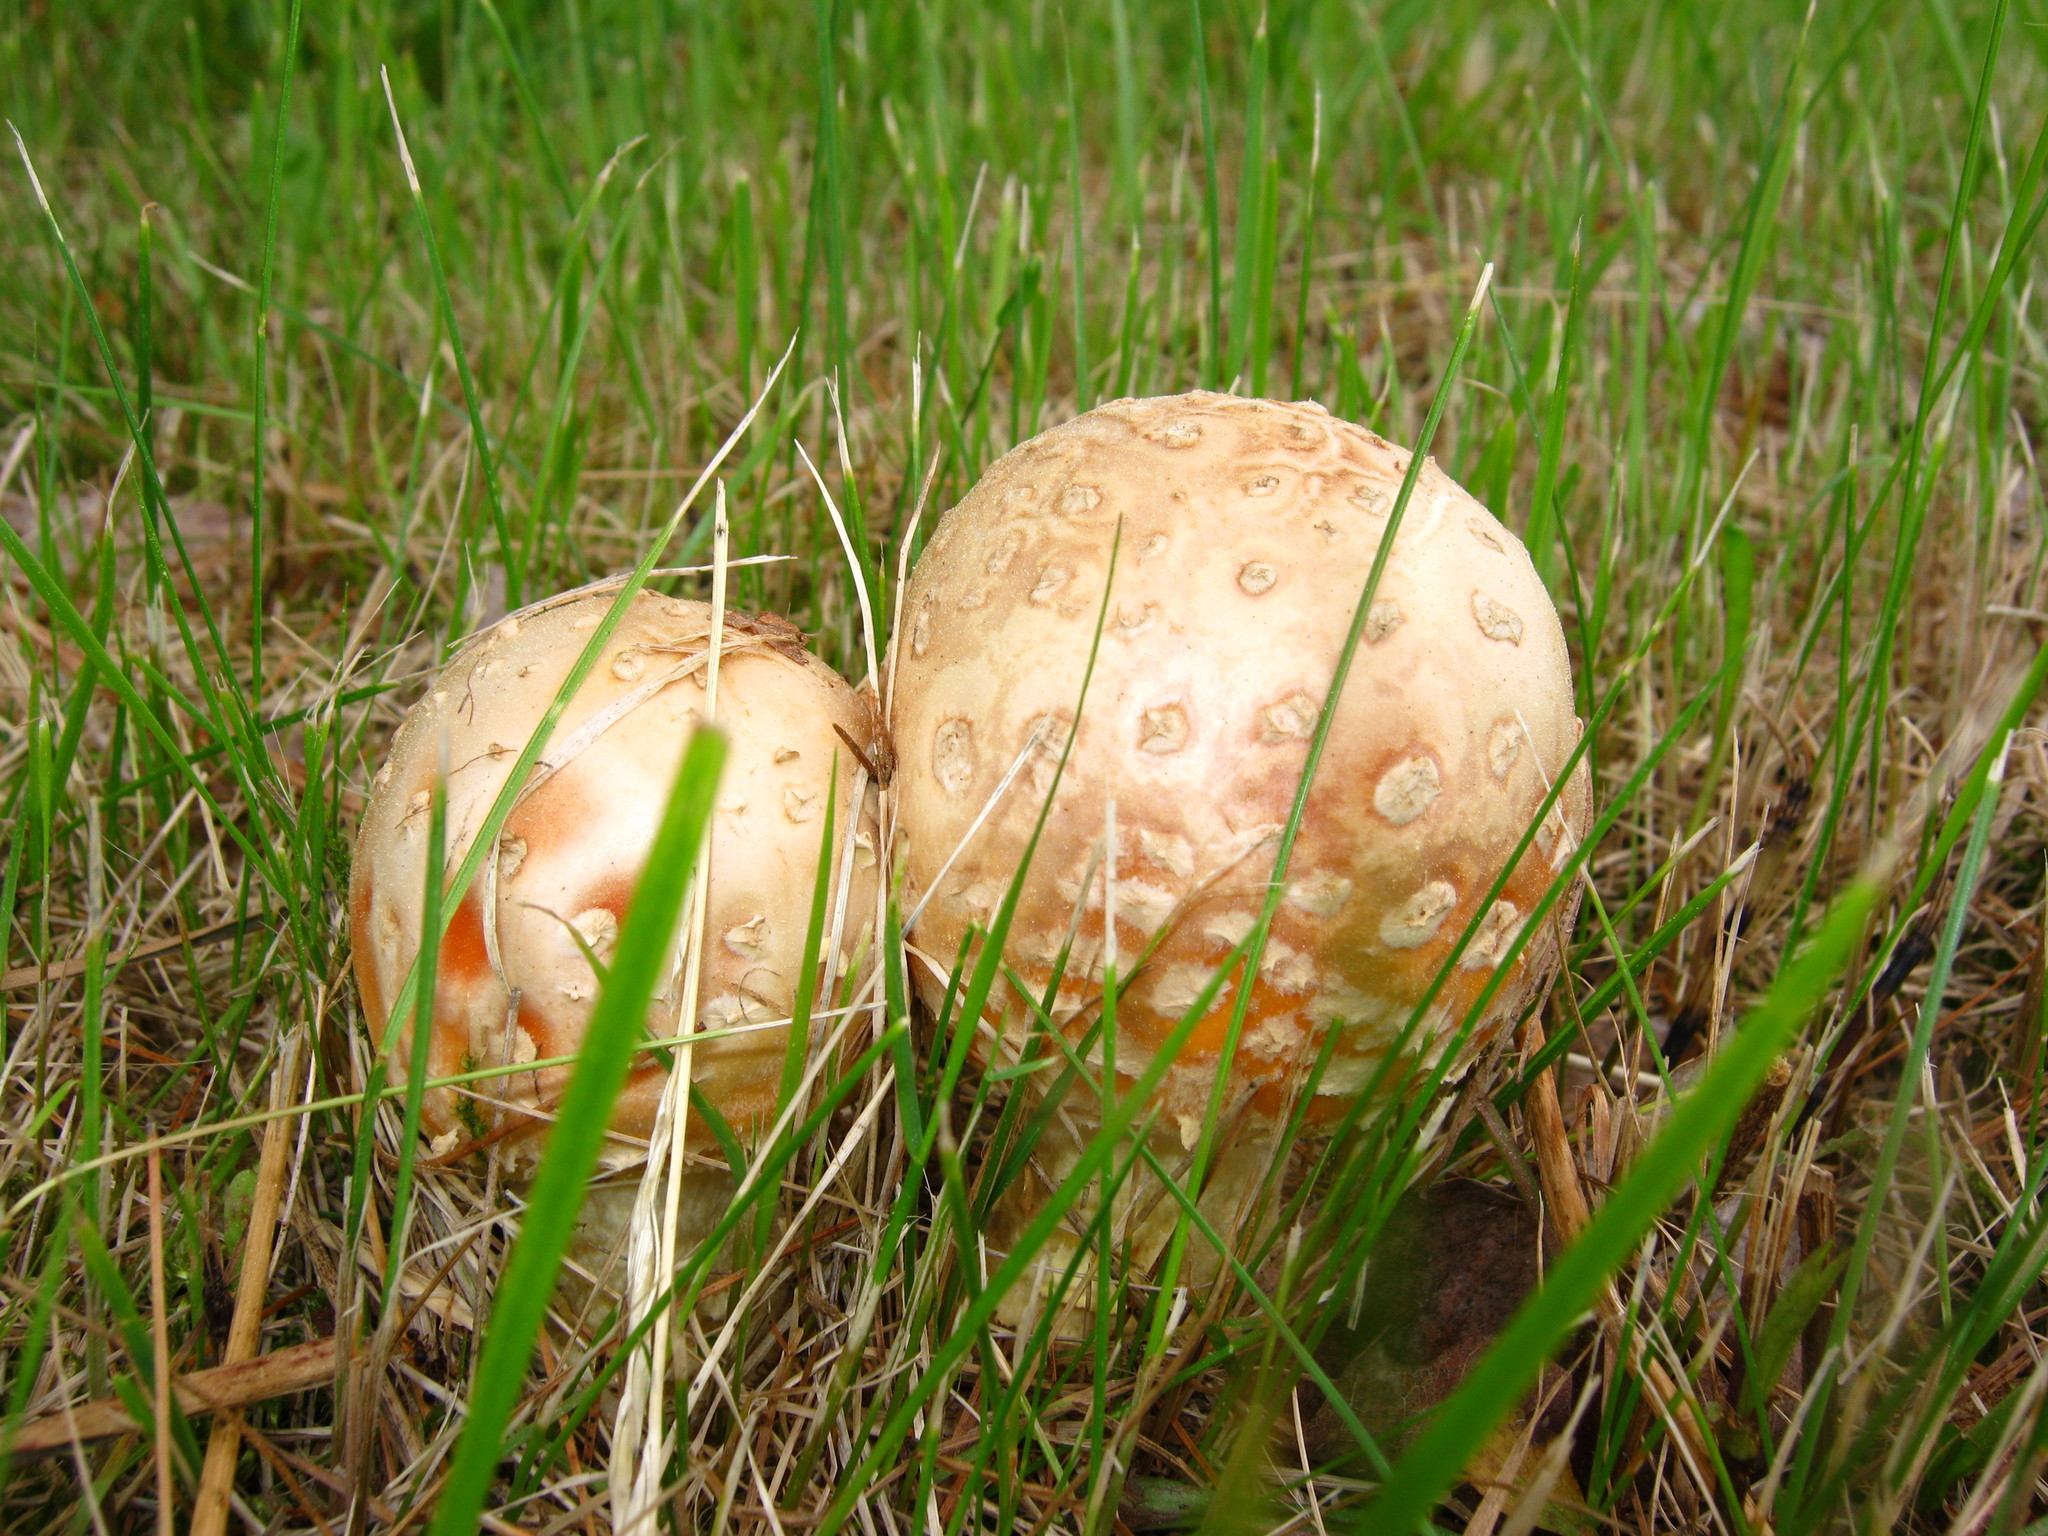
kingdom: Fungi
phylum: Basidiomycota
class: Agaricomycetes
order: Agaricales
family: Amanitaceae
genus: Amanita
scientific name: Amanita muscaria
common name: Fly agaric
